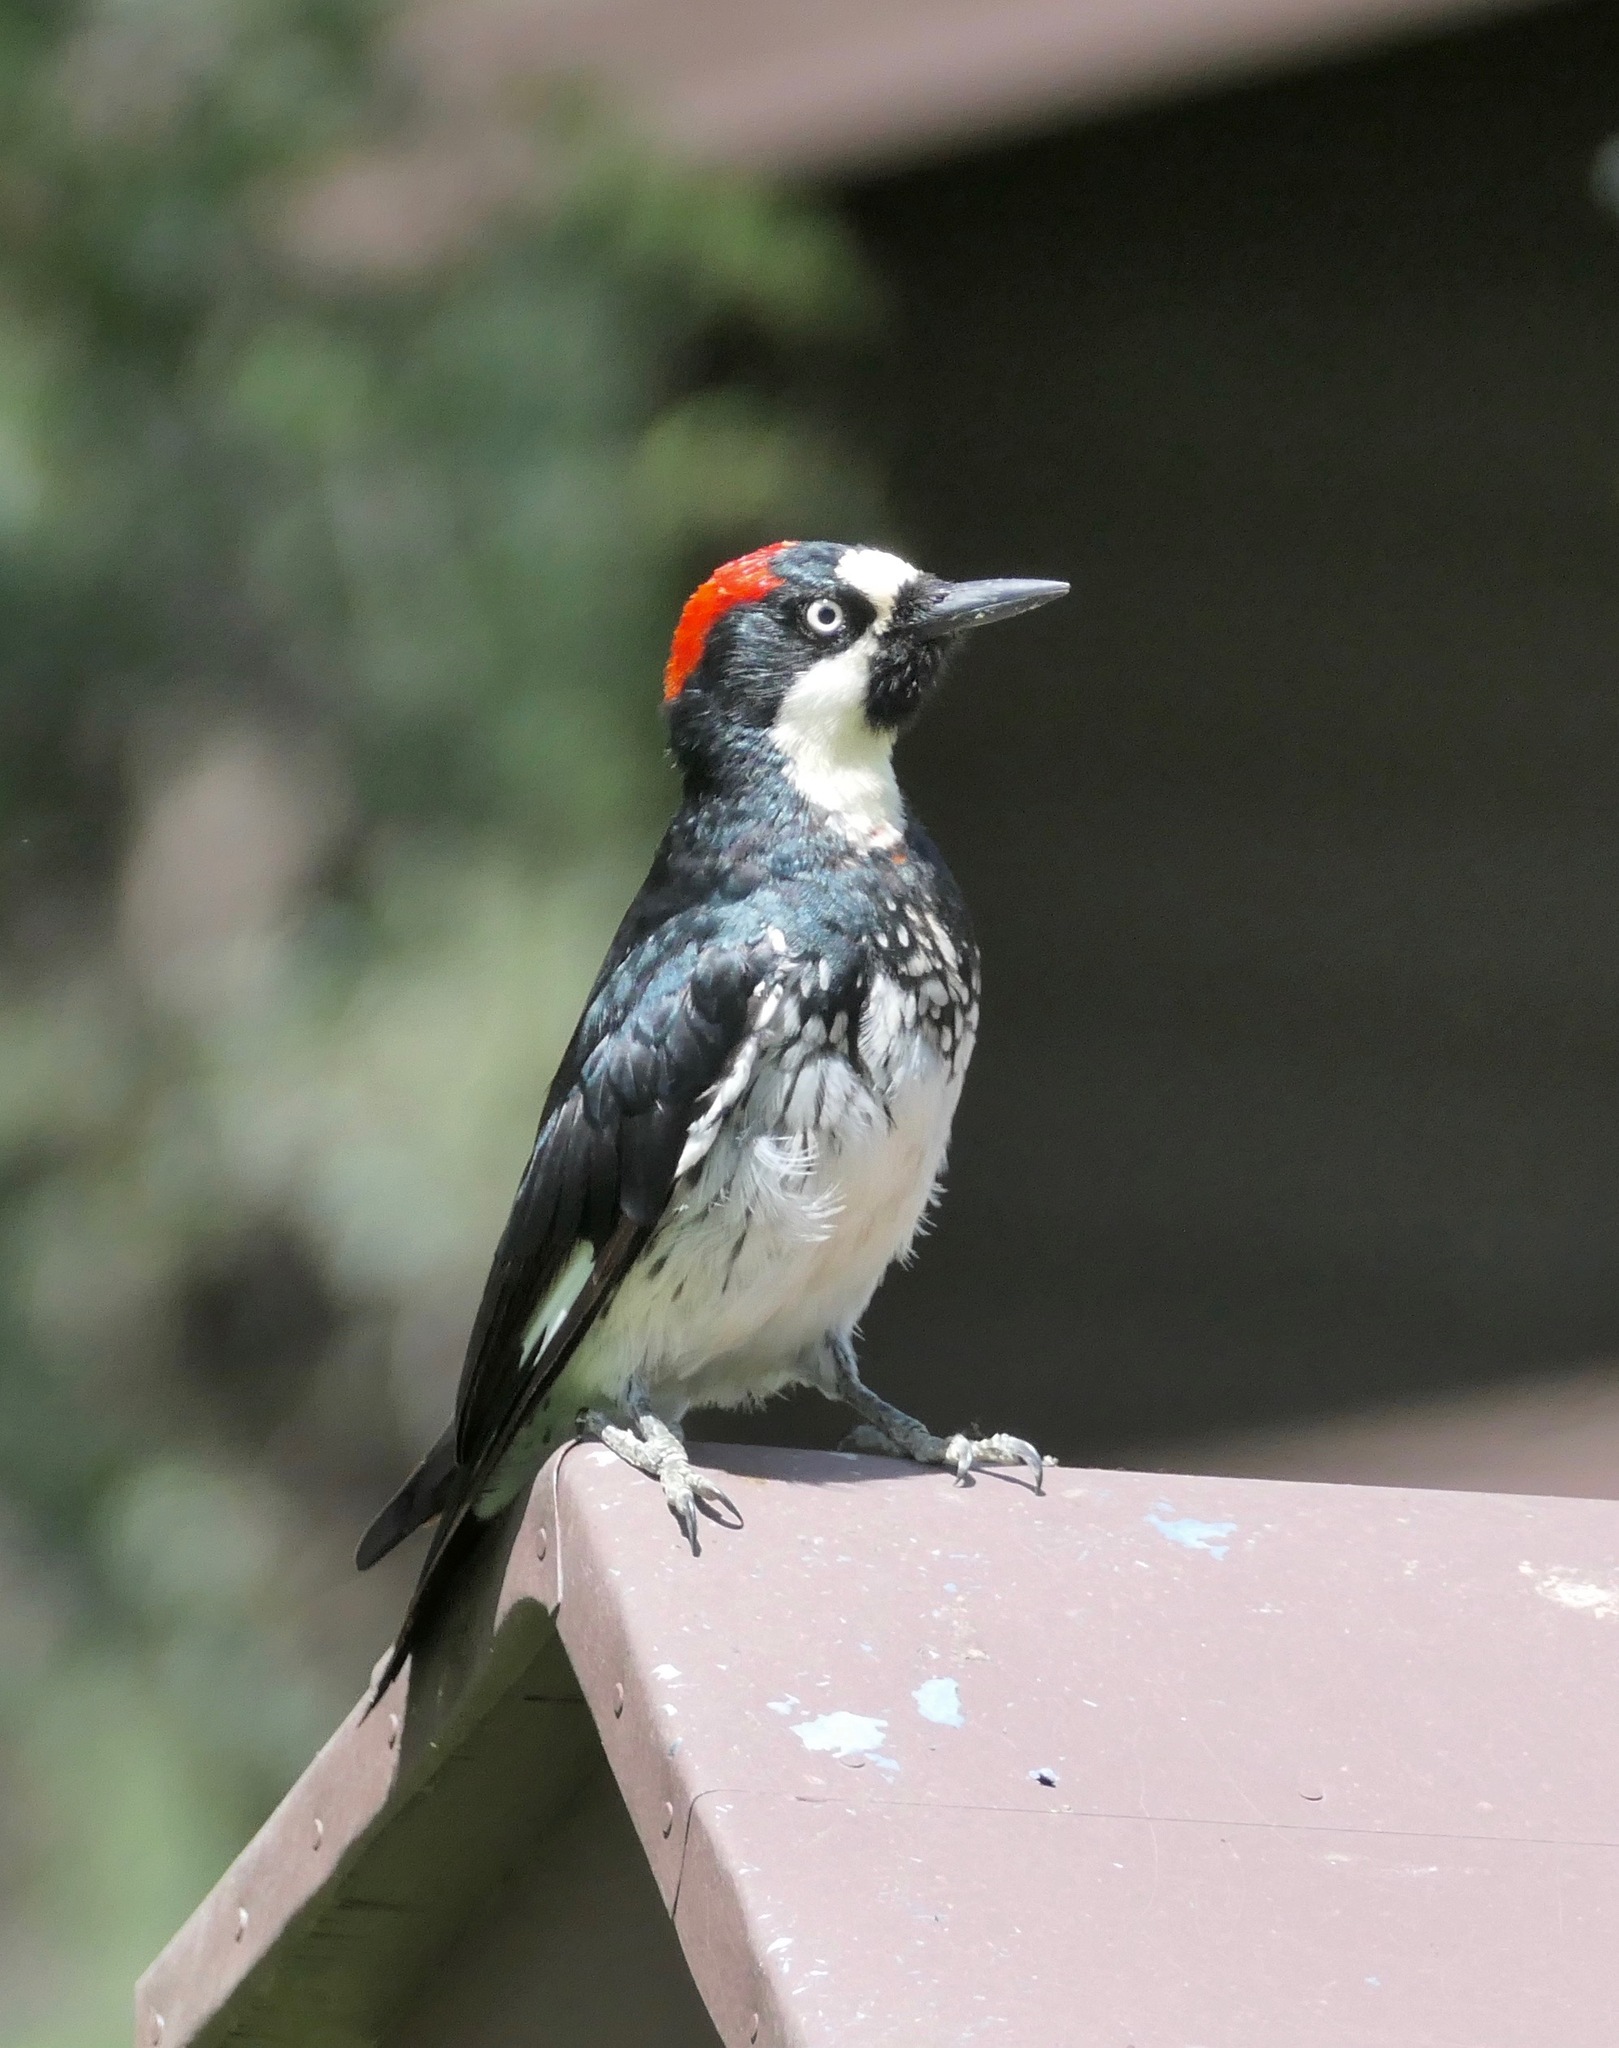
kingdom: Animalia
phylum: Chordata
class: Aves
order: Piciformes
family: Picidae
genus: Melanerpes
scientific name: Melanerpes formicivorus
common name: Acorn woodpecker
